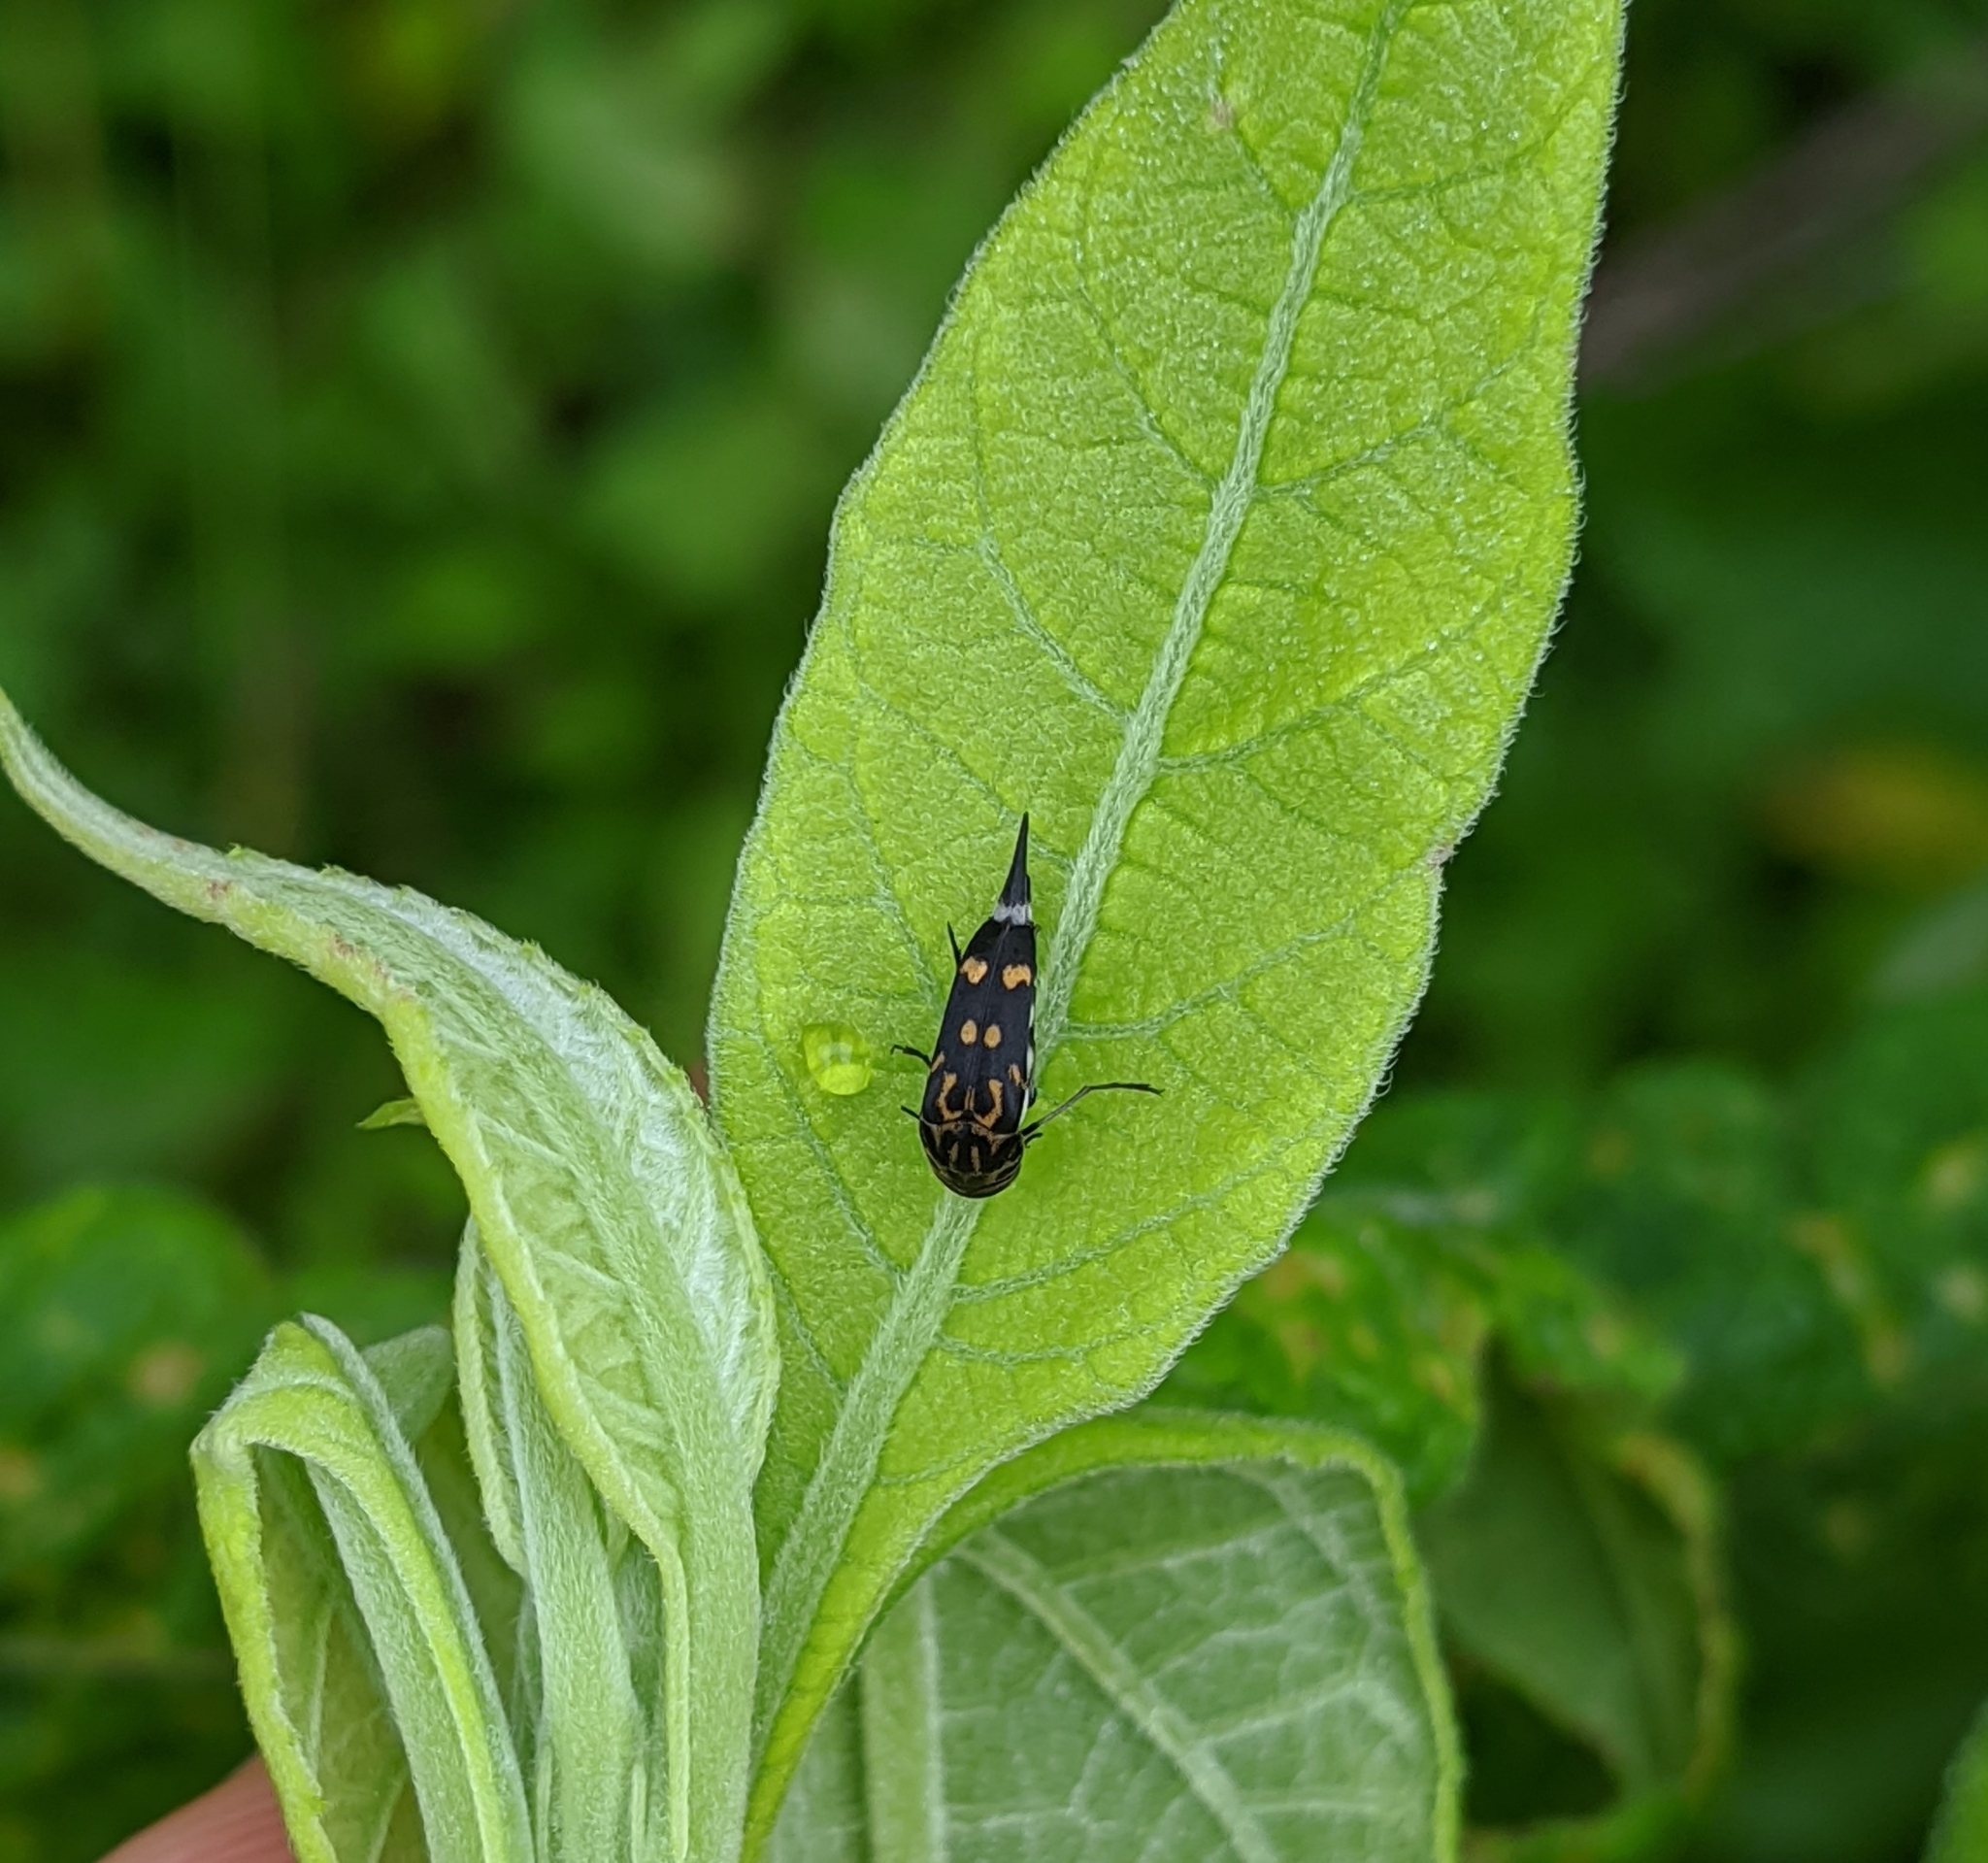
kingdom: Animalia
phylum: Arthropoda
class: Insecta
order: Coleoptera
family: Mordellidae
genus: Hoshihananomia
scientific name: Hoshihananomia octopunctata
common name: Eight-spotted tumbling flower beetle
